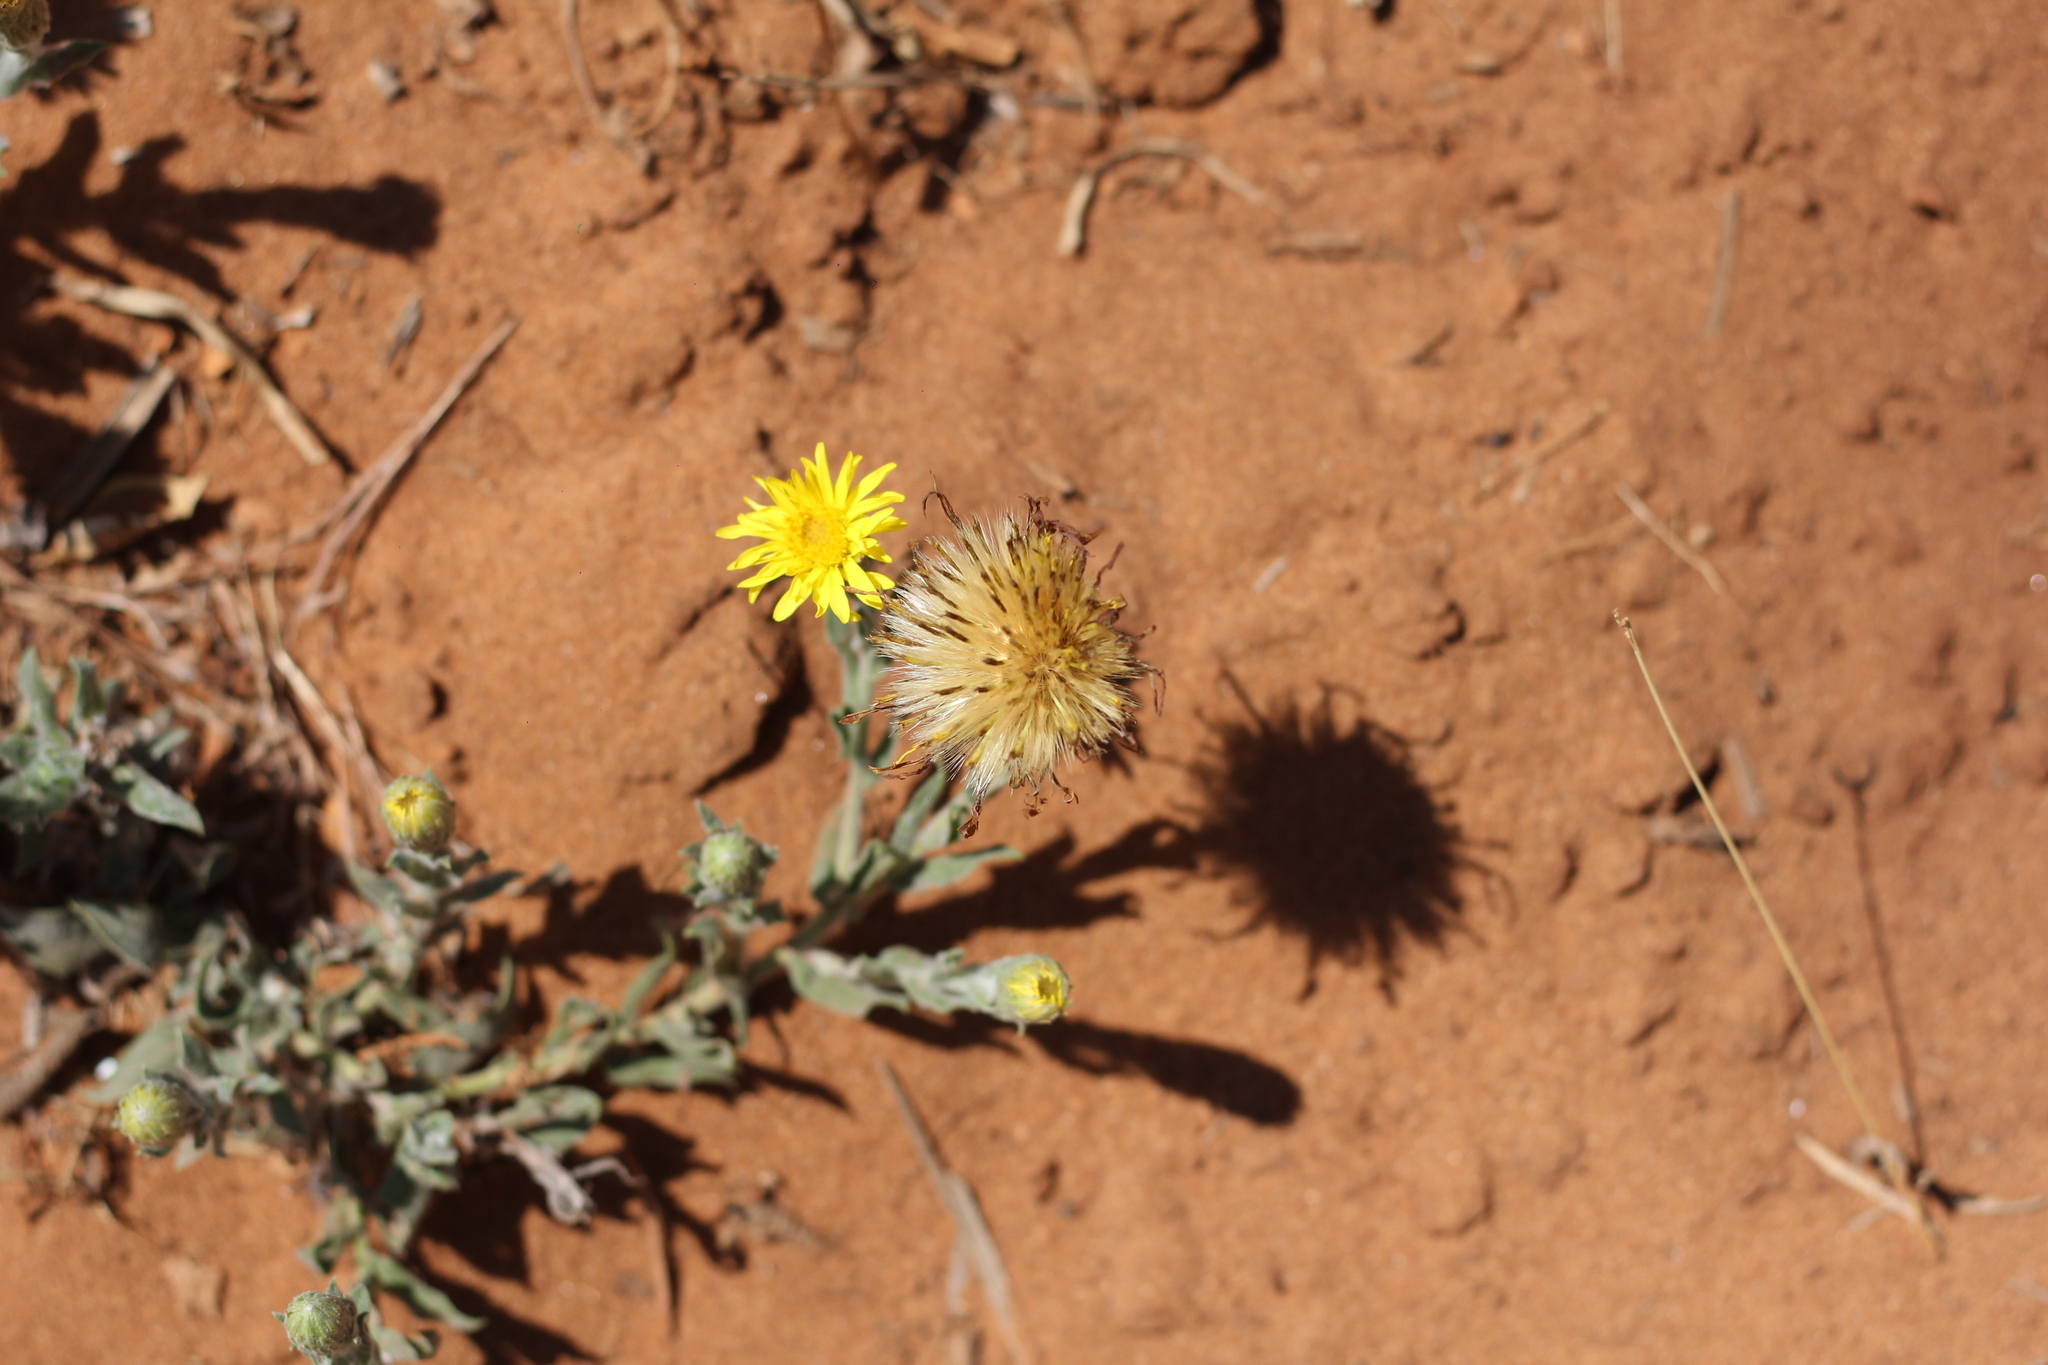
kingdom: Plantae
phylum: Tracheophyta
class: Magnoliopsida
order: Asterales
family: Asteraceae
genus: Noticastrum
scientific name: Noticastrum acuminatum
